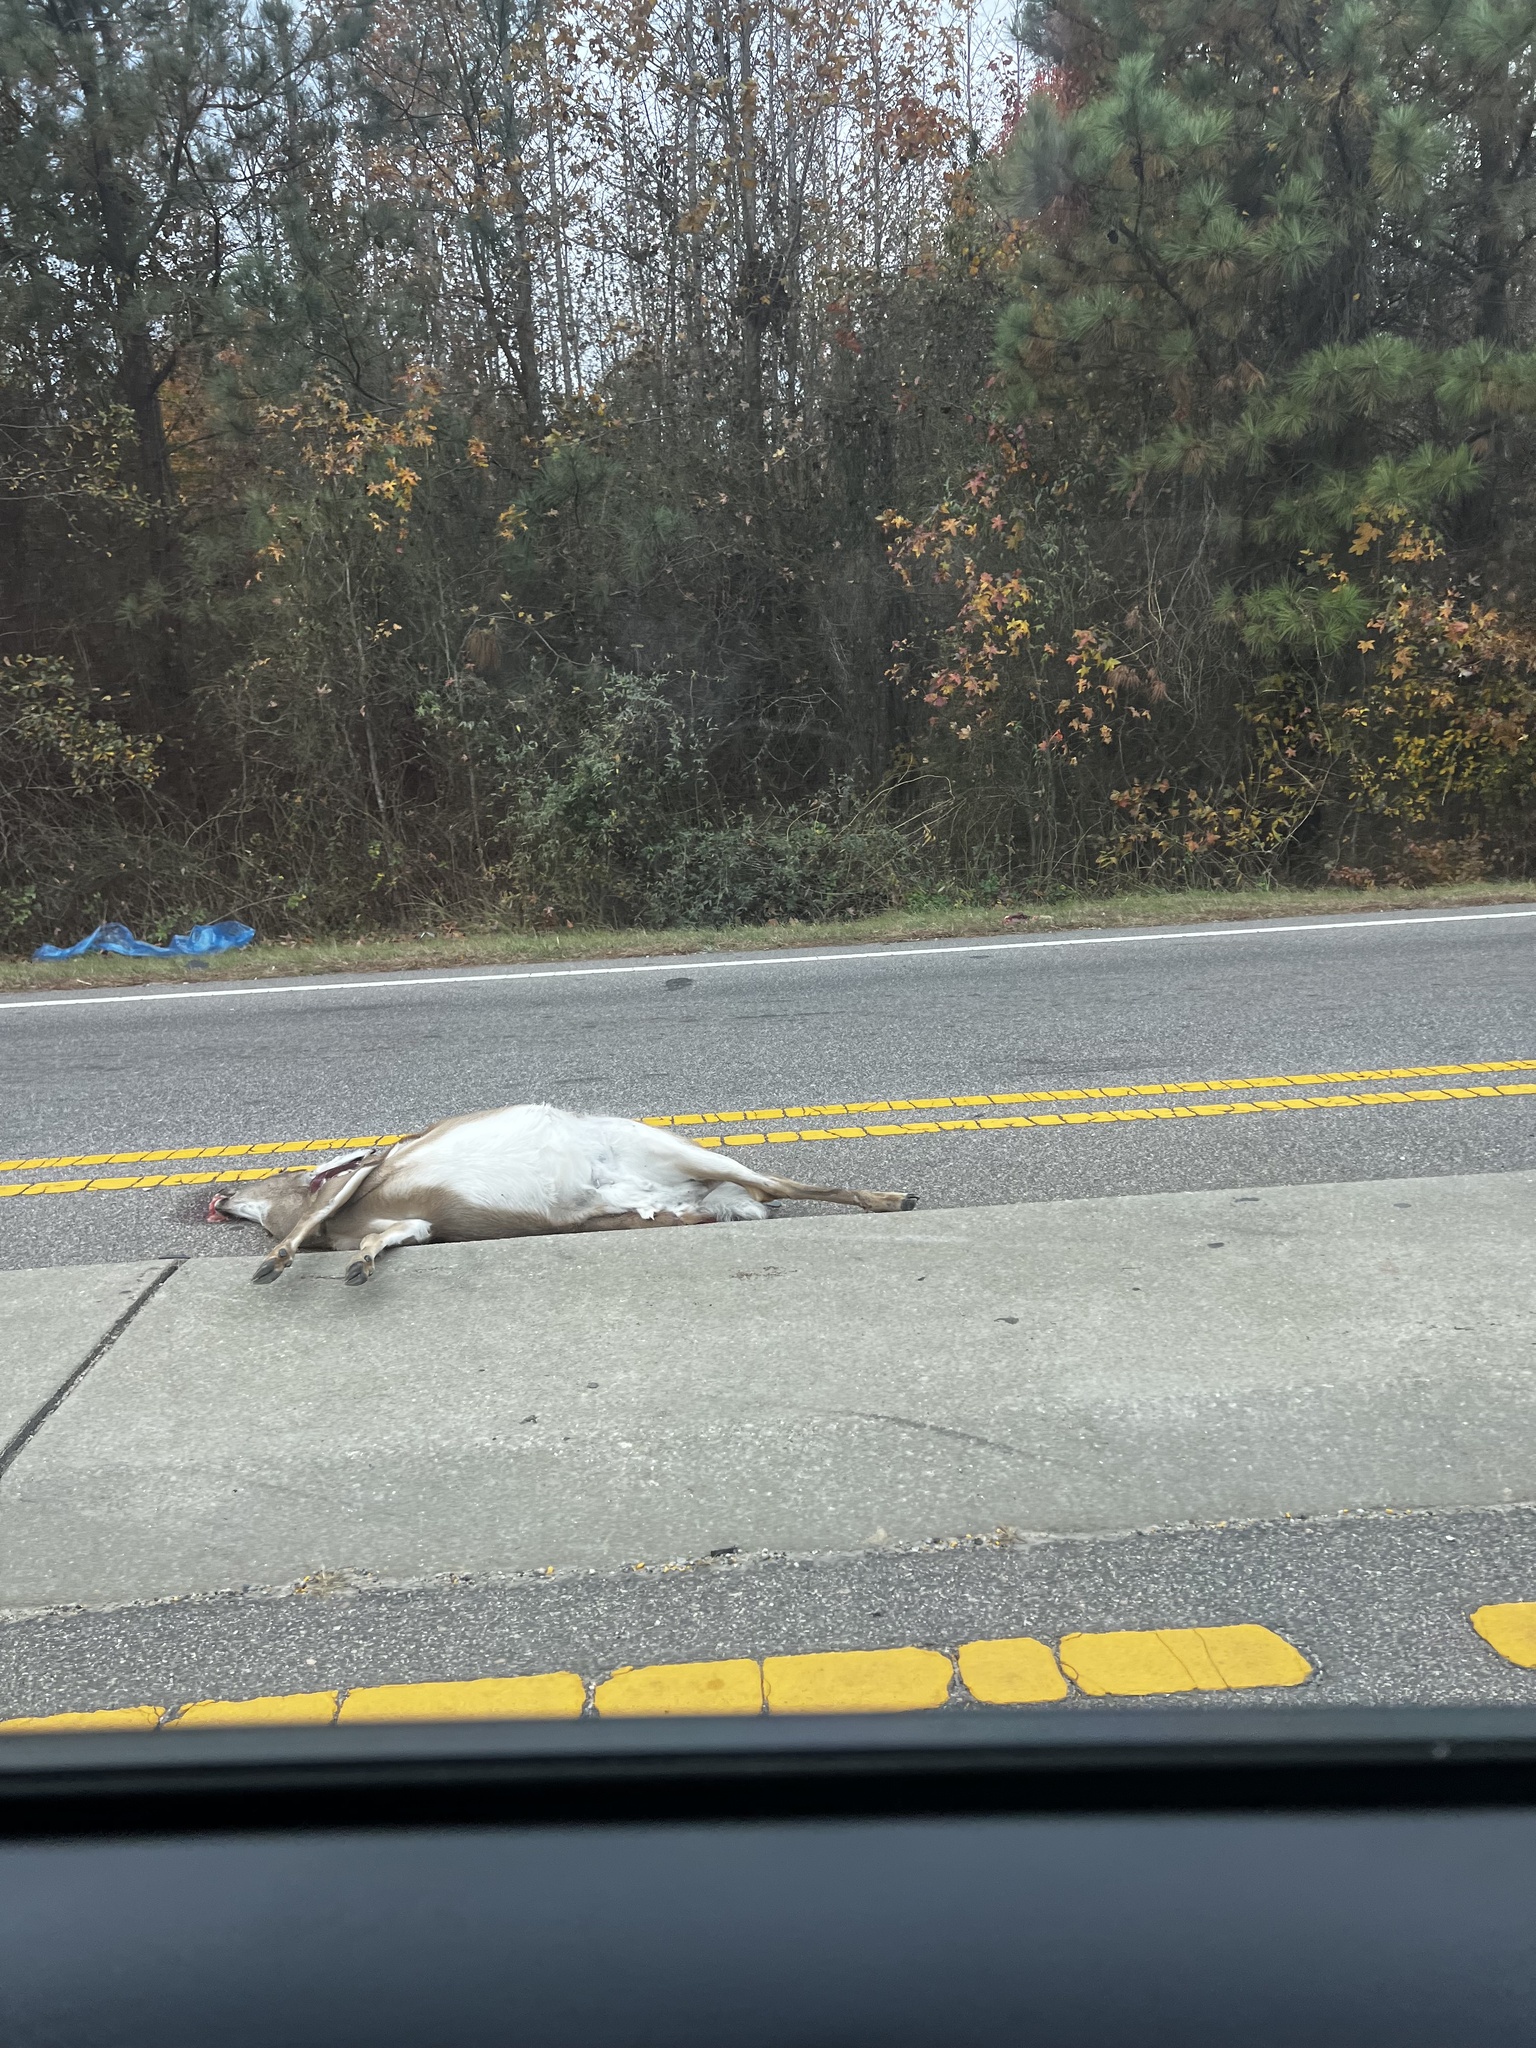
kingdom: Animalia
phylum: Chordata
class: Mammalia
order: Artiodactyla
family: Cervidae
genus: Odocoileus
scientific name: Odocoileus virginianus
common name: White-tailed deer
